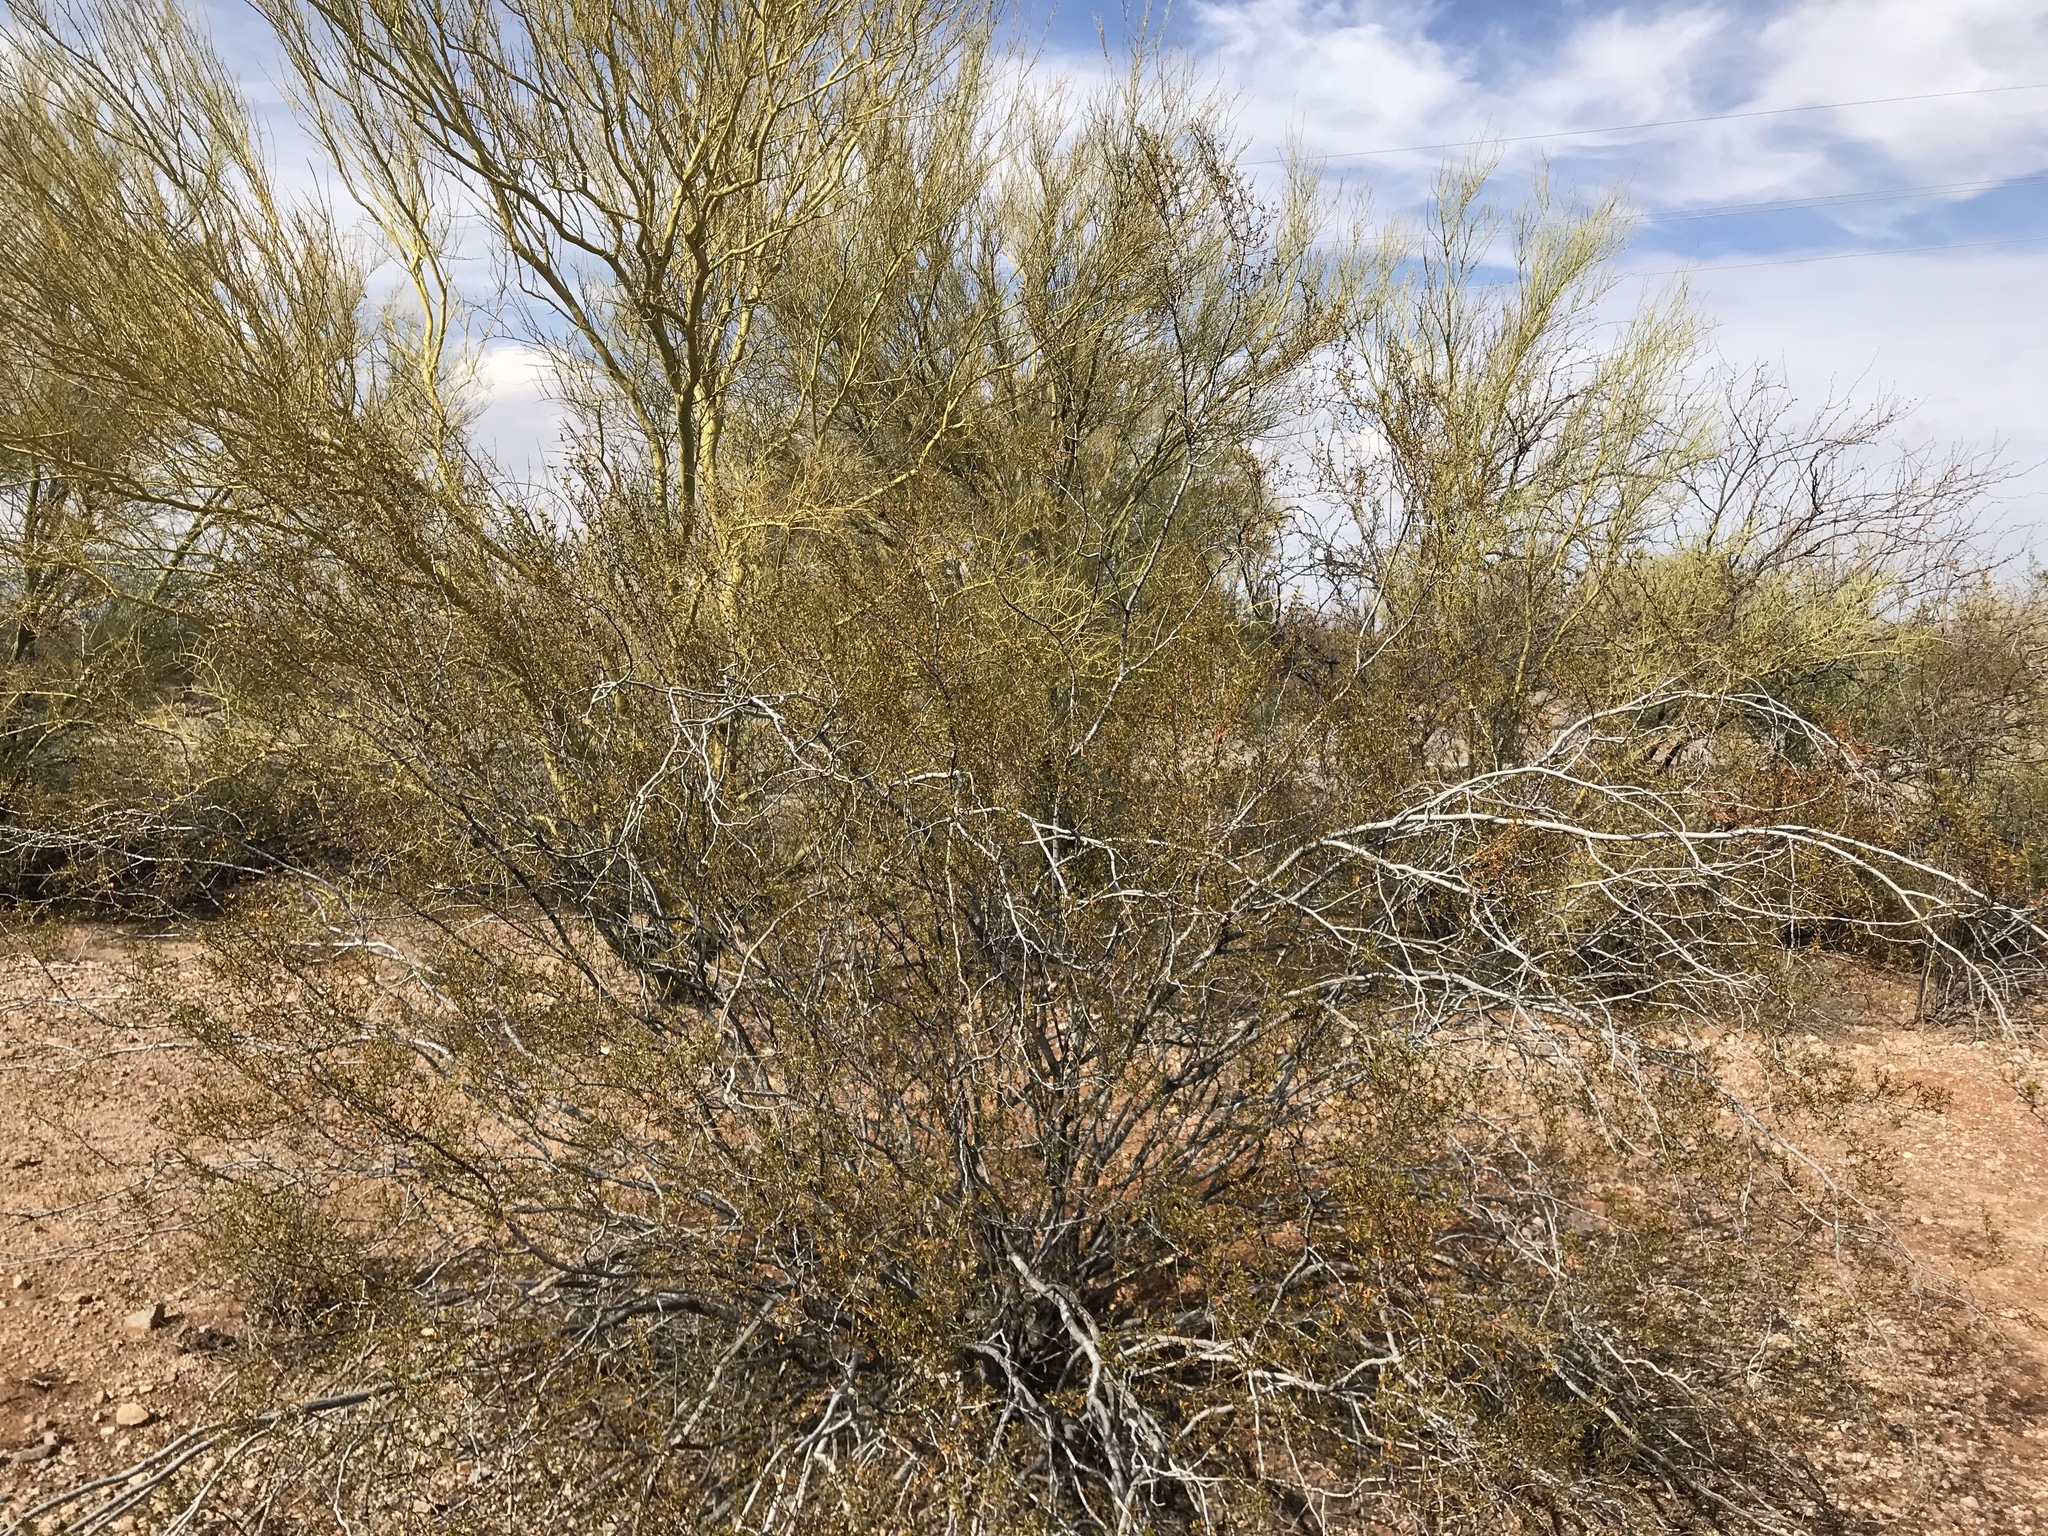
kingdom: Plantae
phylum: Tracheophyta
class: Magnoliopsida
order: Zygophyllales
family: Zygophyllaceae
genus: Larrea
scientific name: Larrea tridentata
